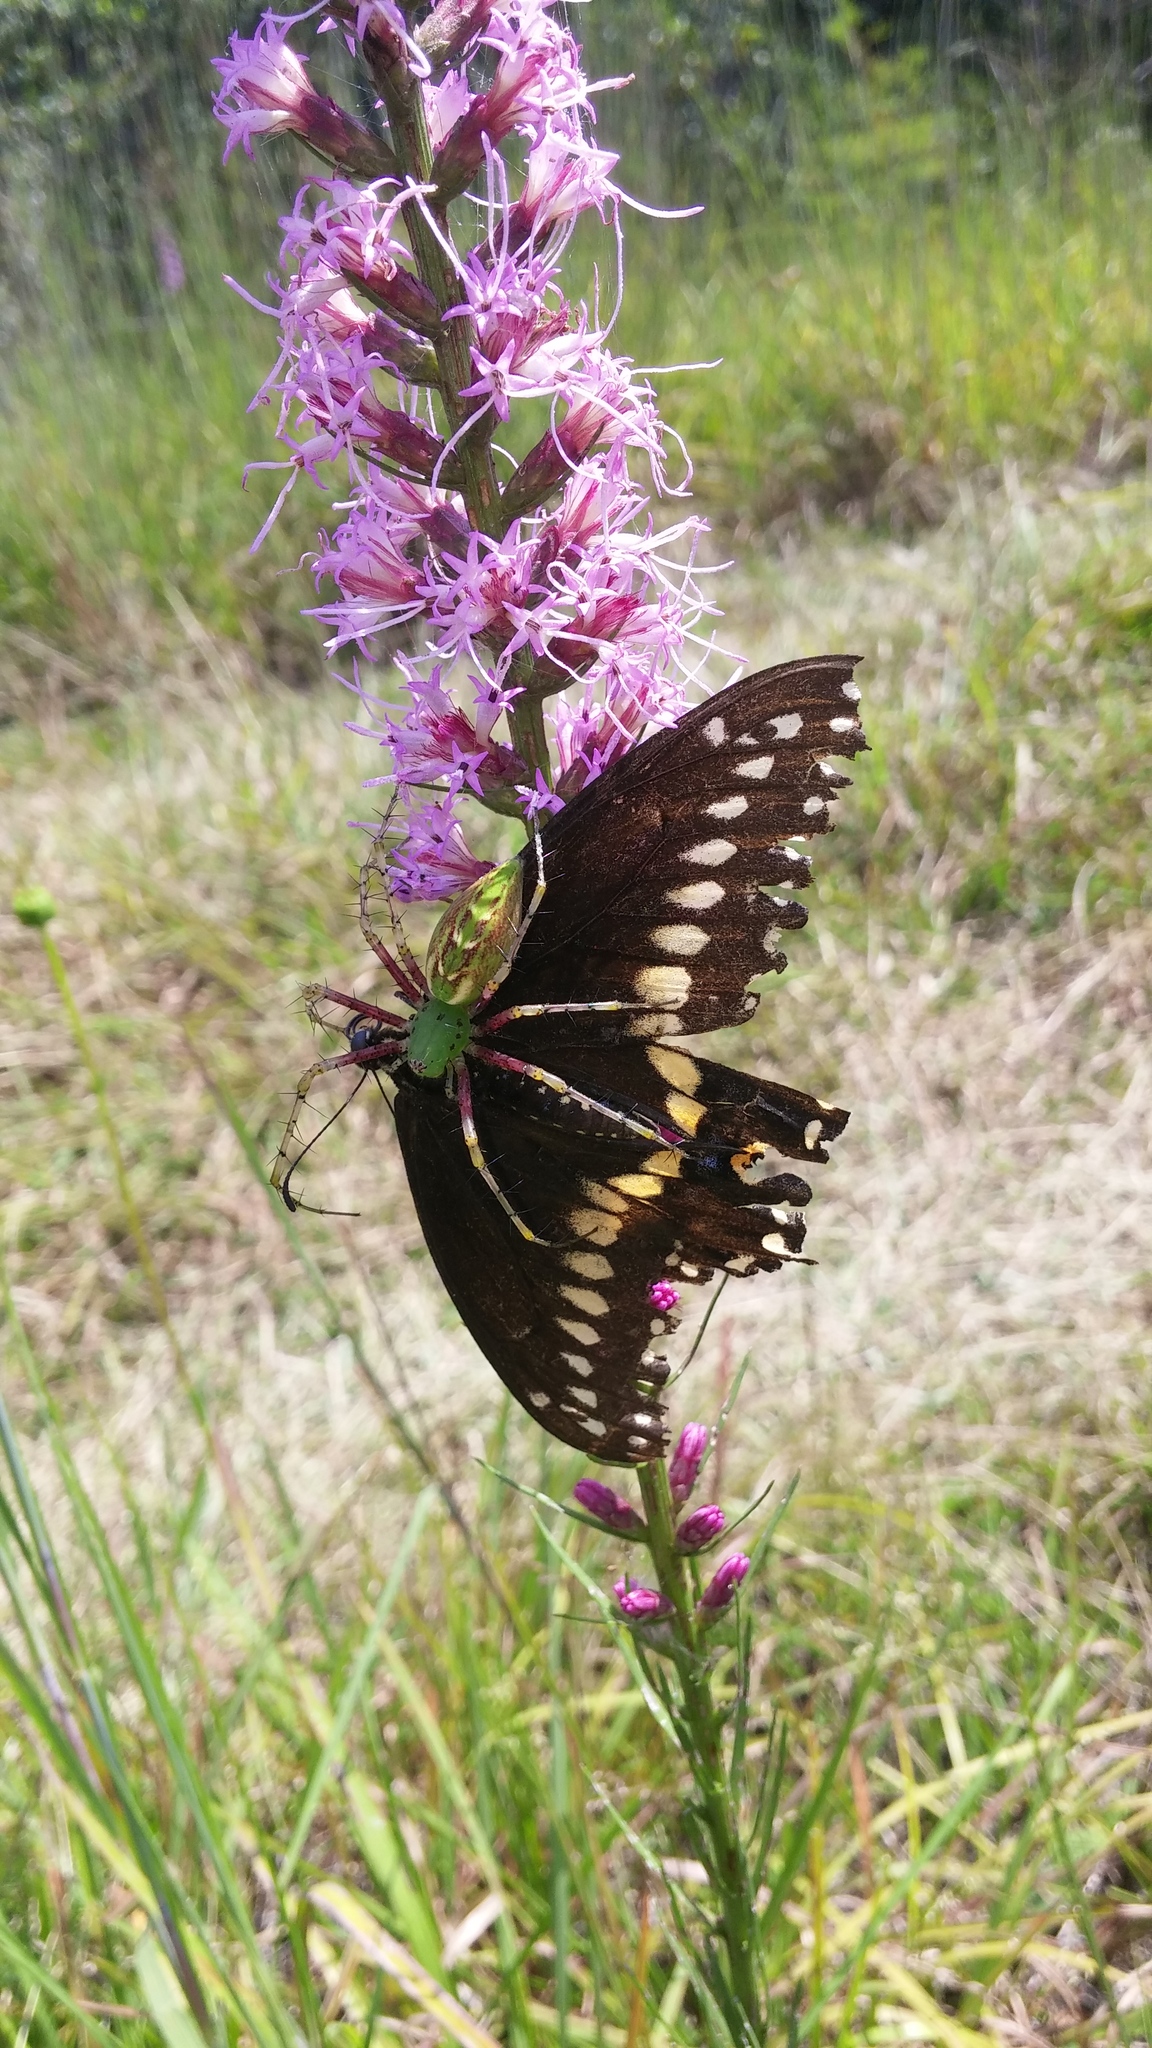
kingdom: Animalia
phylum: Arthropoda
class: Arachnida
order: Araneae
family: Oxyopidae
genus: Peucetia
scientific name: Peucetia viridans
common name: Lynx spiders
